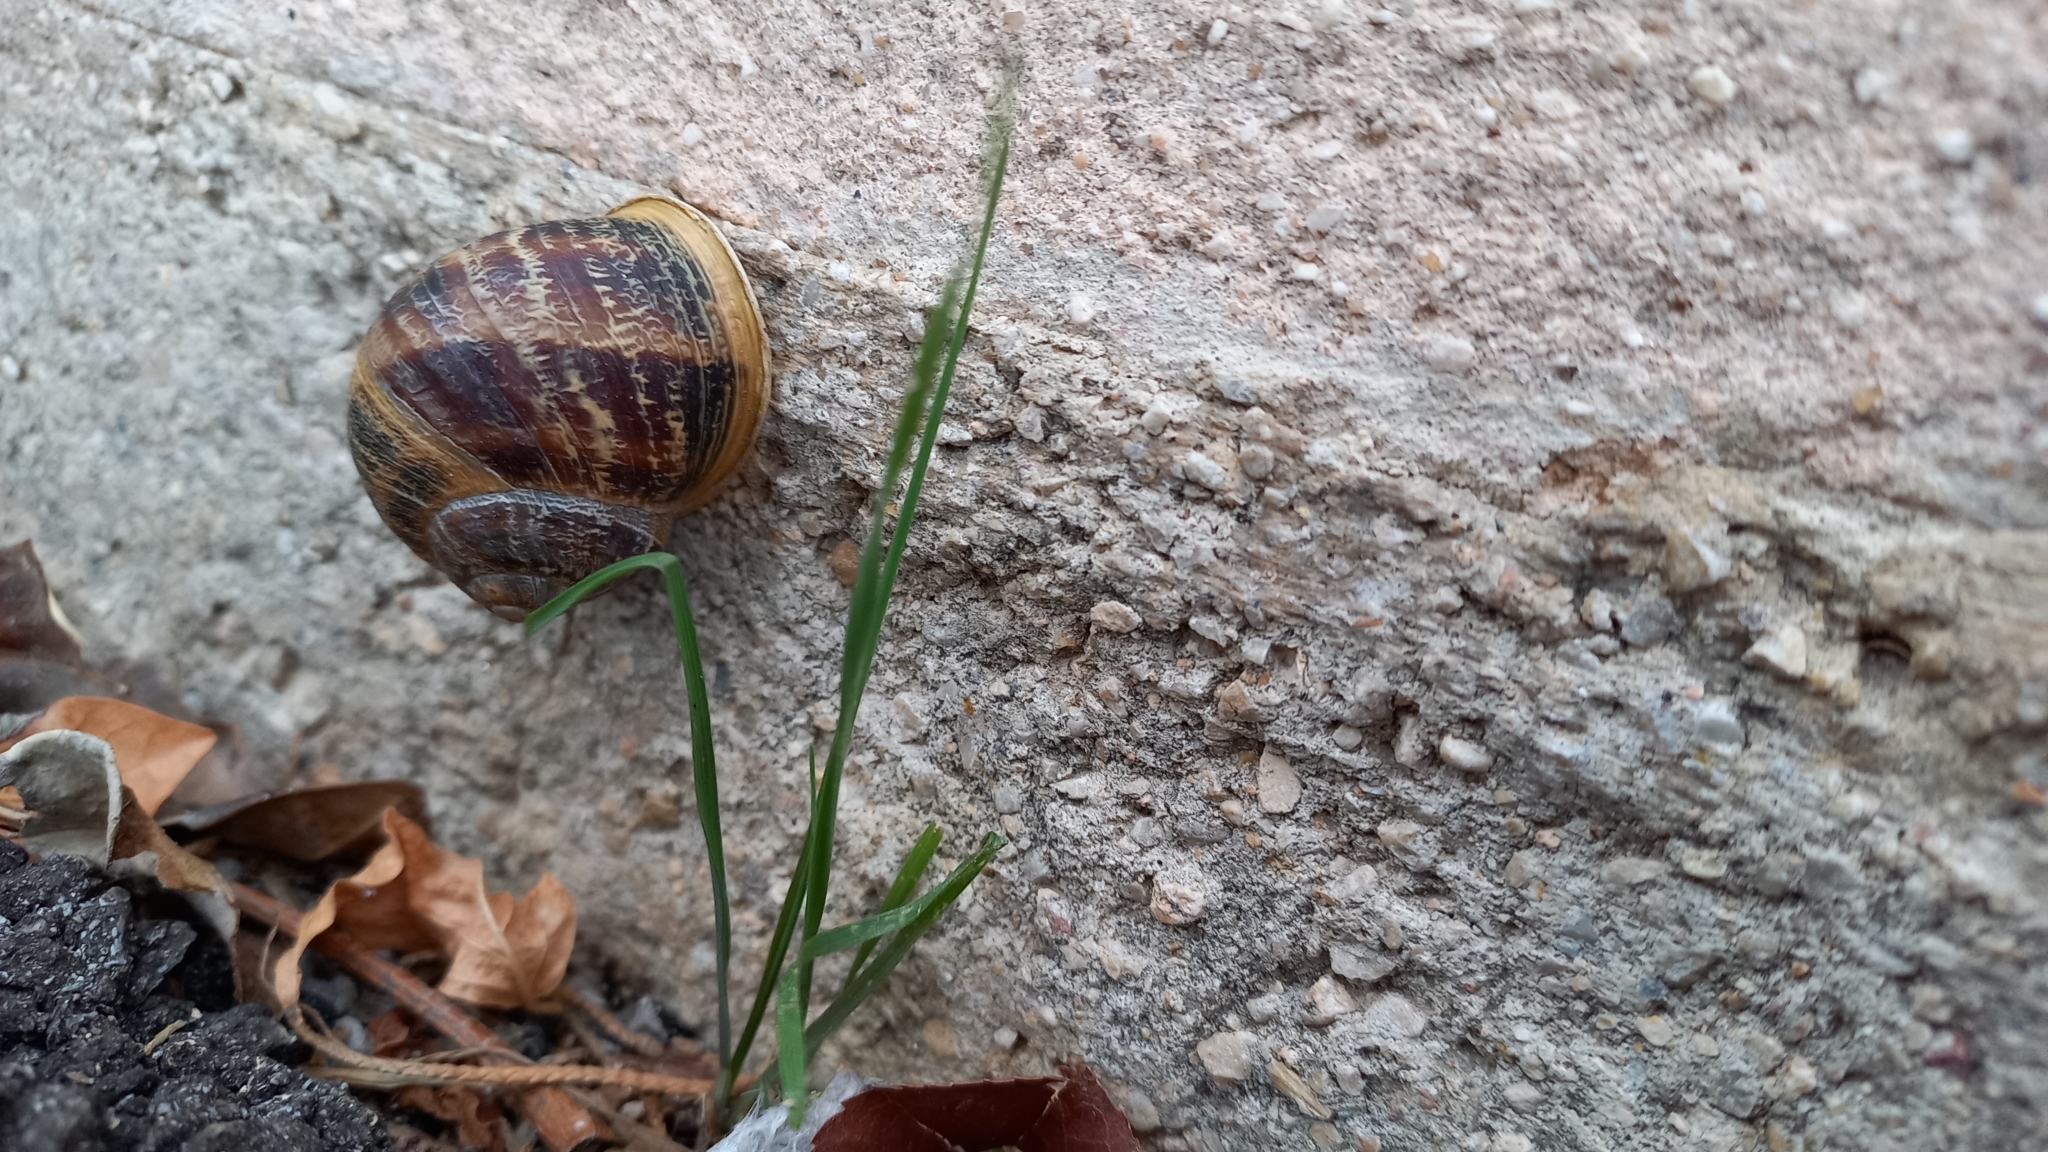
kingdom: Animalia
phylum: Mollusca
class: Gastropoda
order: Stylommatophora
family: Helicidae
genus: Cornu
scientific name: Cornu aspersum
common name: Brown garden snail
